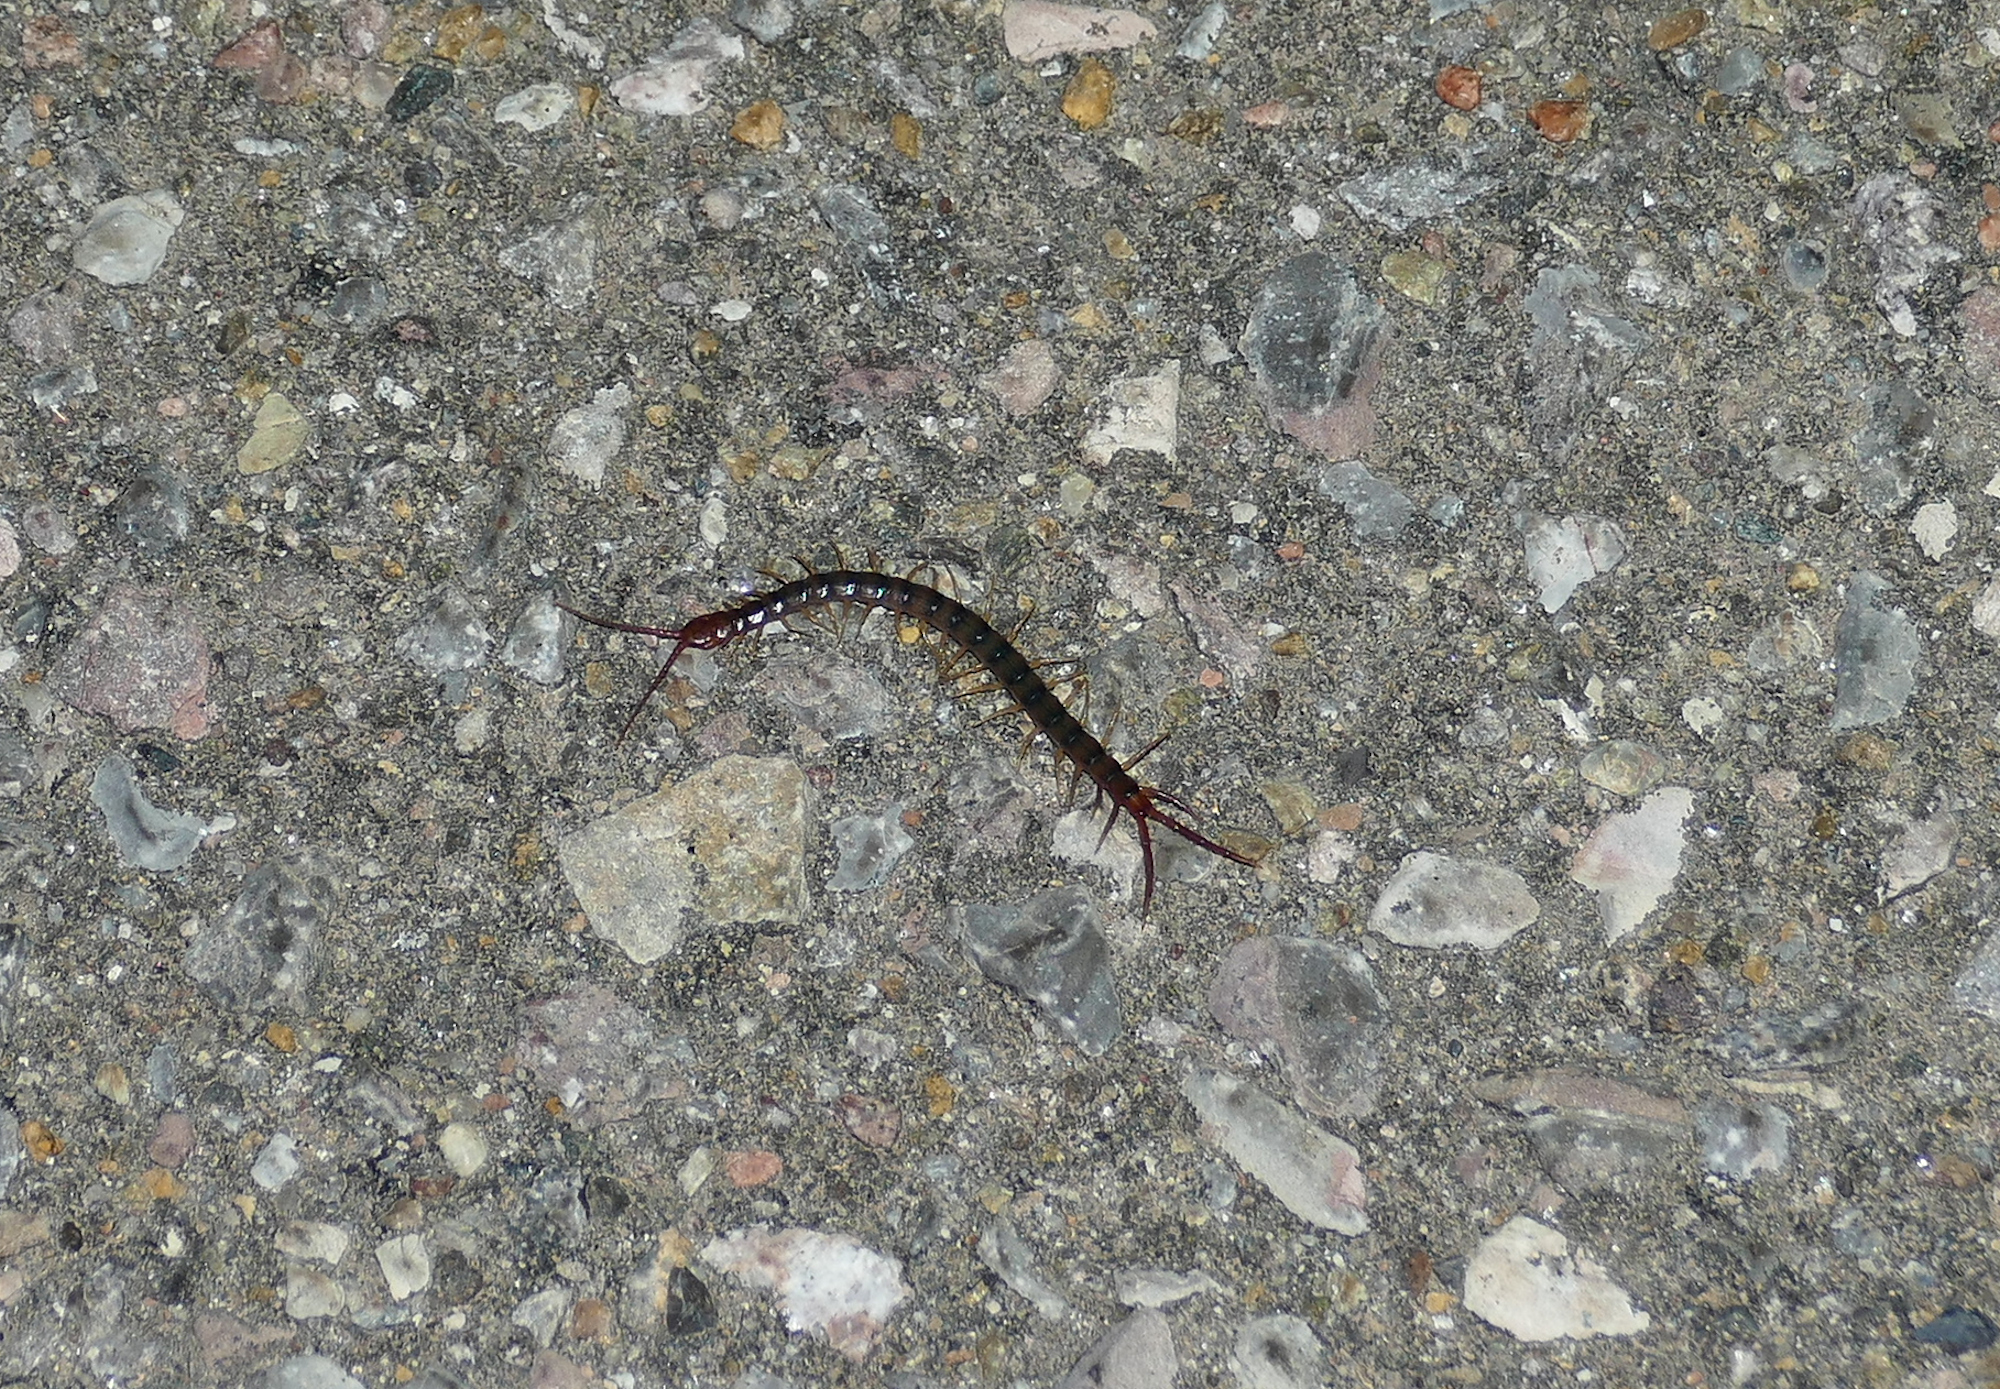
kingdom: Animalia
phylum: Arthropoda
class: Chilopoda
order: Scolopendromorpha
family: Scolopendridae
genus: Scolopendra
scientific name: Scolopendra polymorpha
